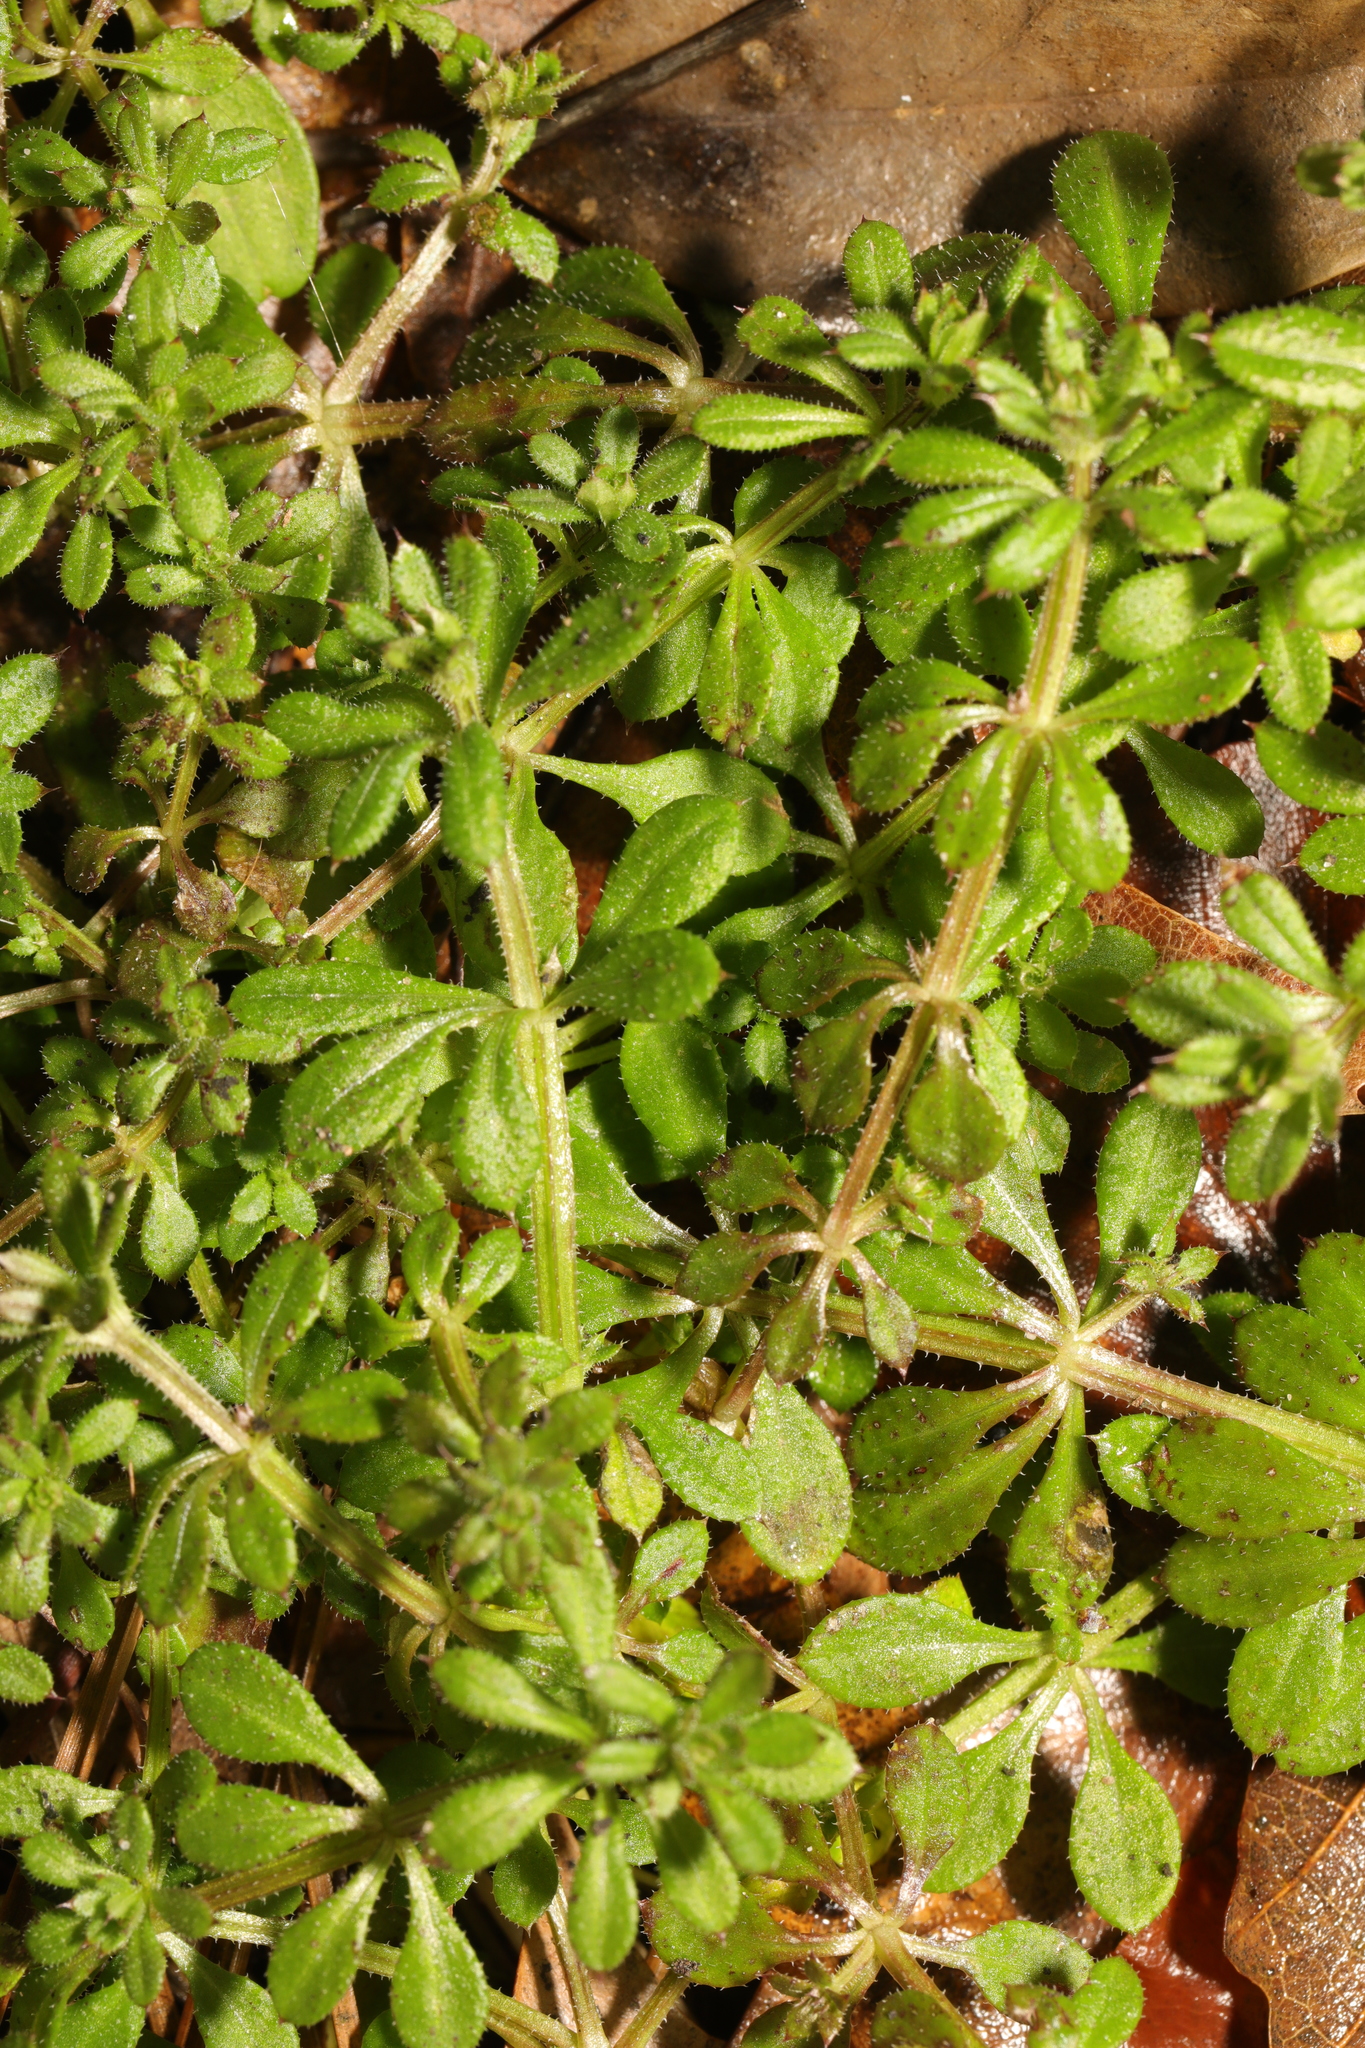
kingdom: Plantae
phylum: Tracheophyta
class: Magnoliopsida
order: Gentianales
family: Rubiaceae
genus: Galium
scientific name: Galium aparine
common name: Cleavers
